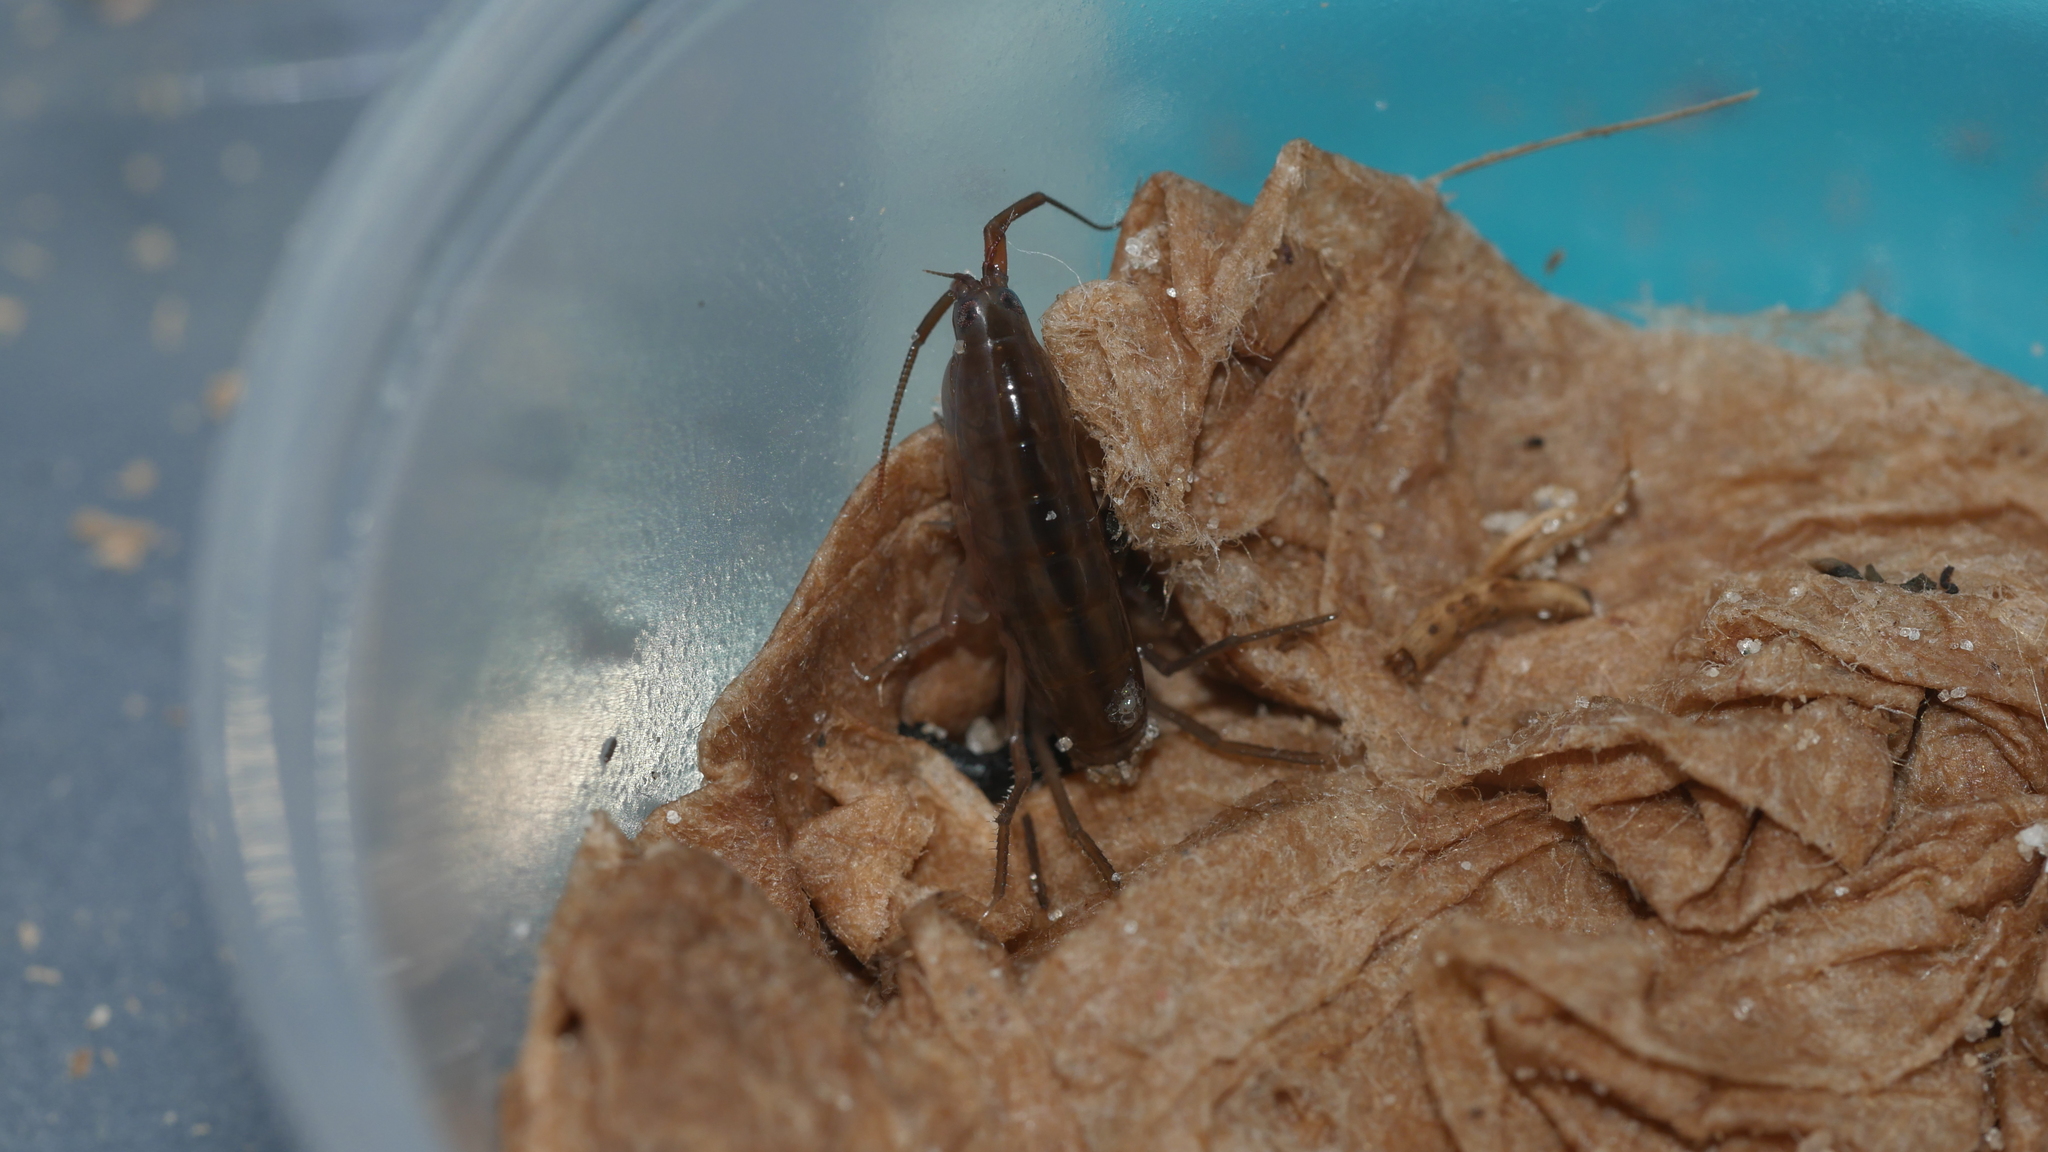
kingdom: Animalia
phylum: Arthropoda
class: Malacostraca
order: Amphipoda
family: Talitridae
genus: Speziorchestia
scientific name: Speziorchestia grillus
